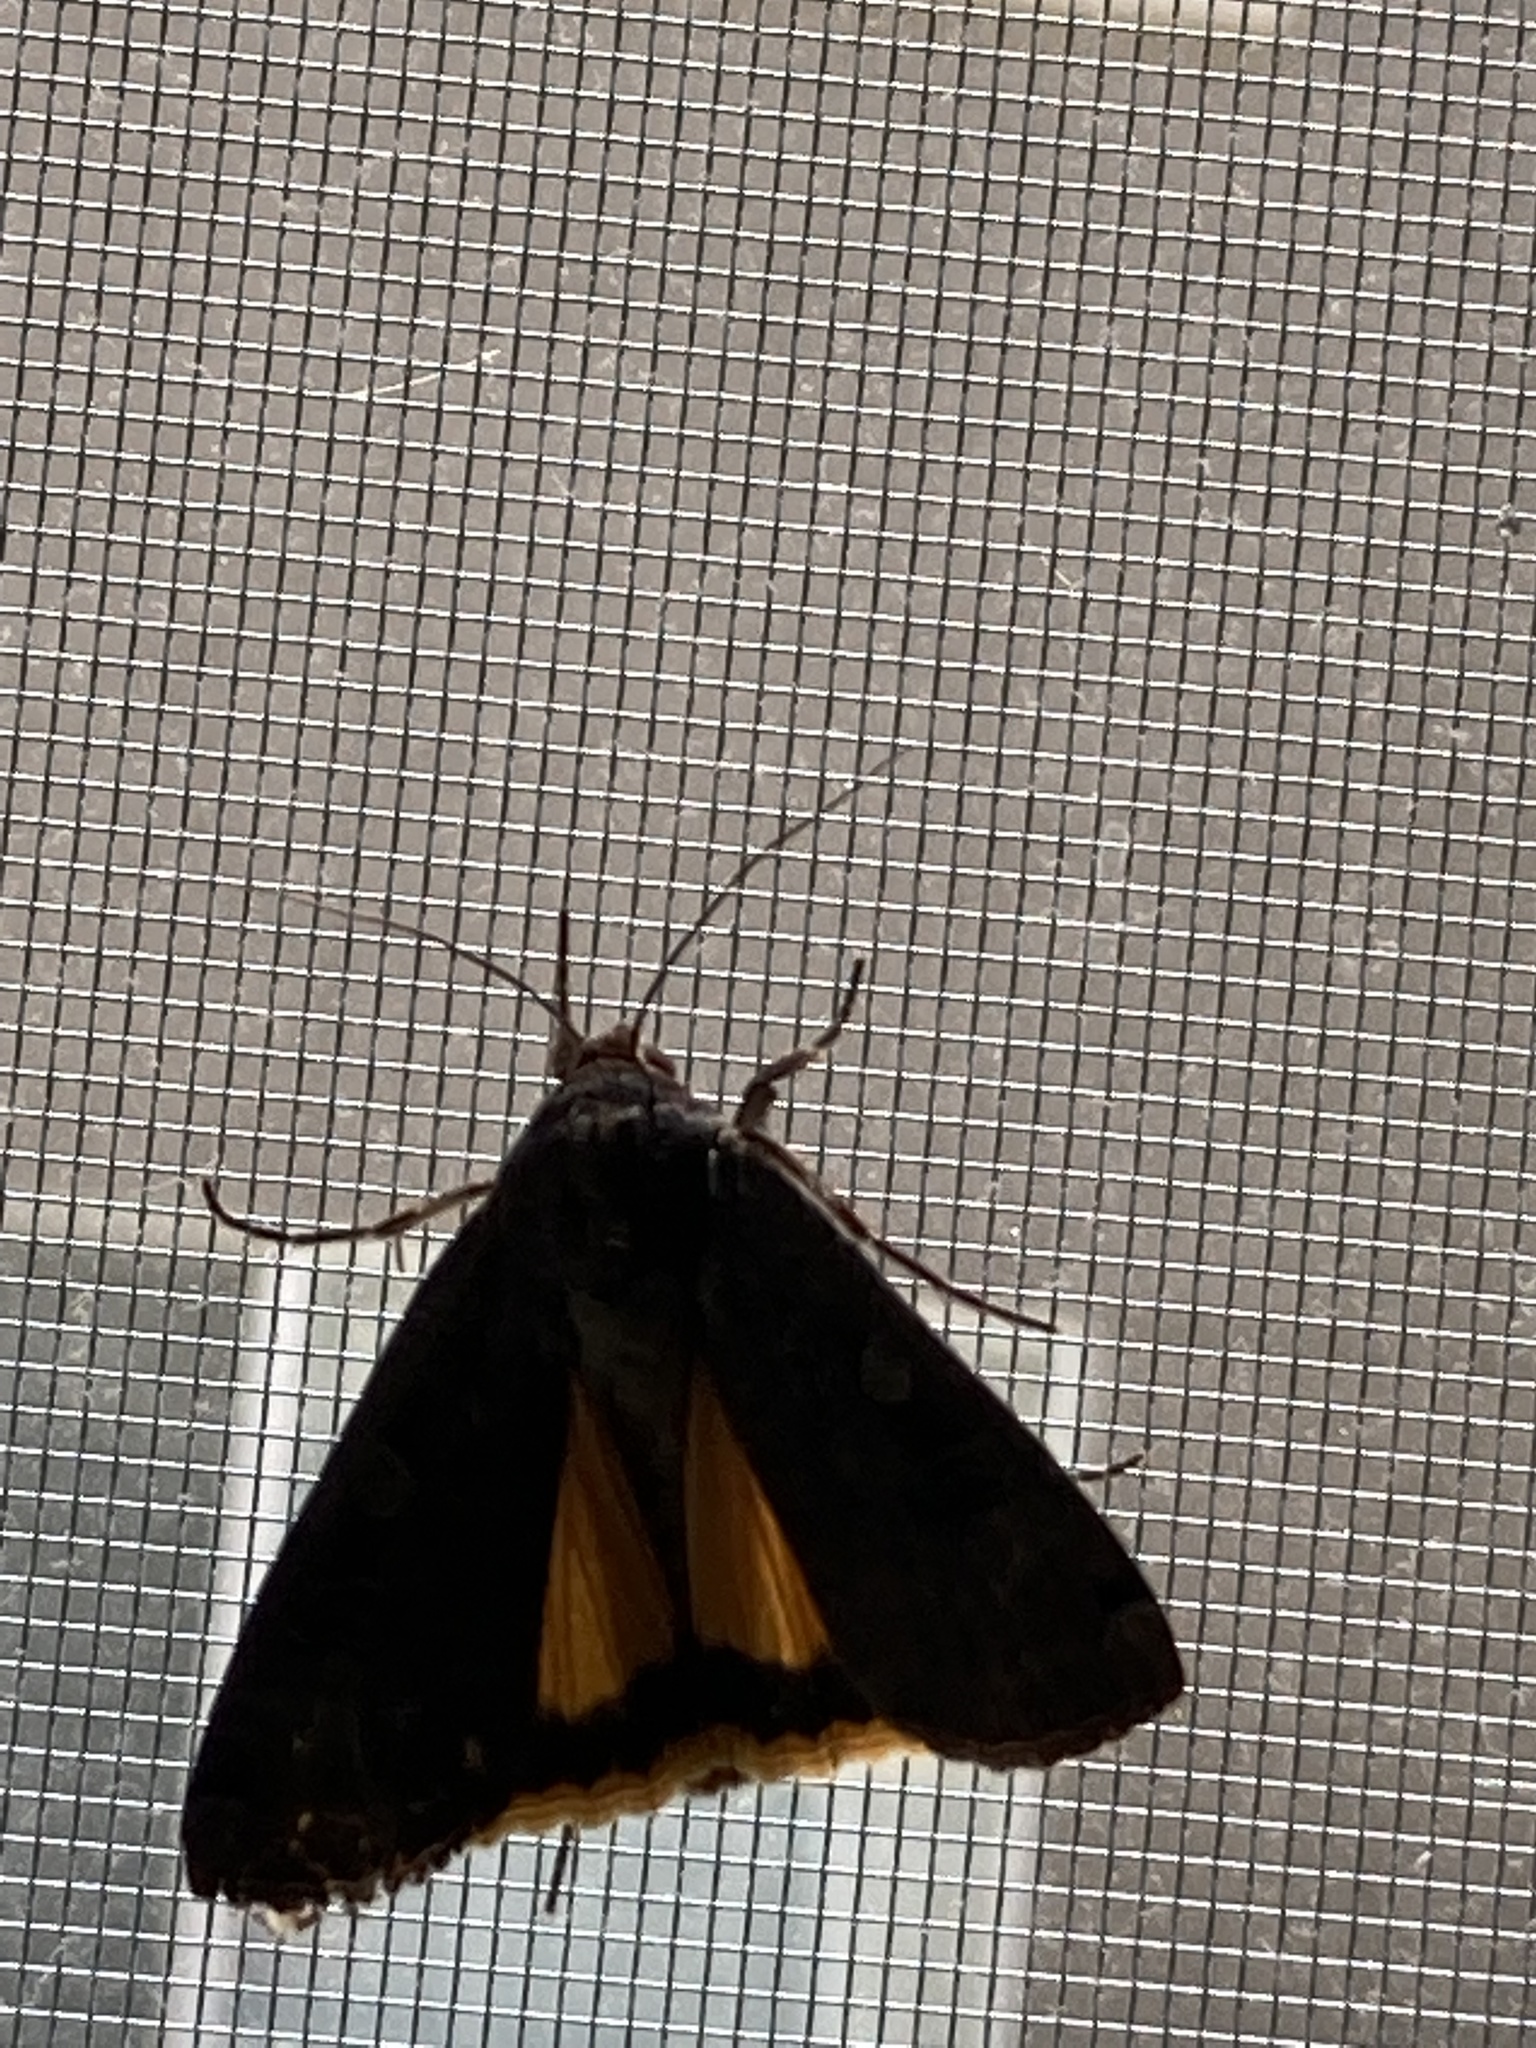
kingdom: Animalia
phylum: Arthropoda
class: Insecta
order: Lepidoptera
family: Noctuidae
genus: Noctua
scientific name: Noctua pronuba
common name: Large yellow underwing
